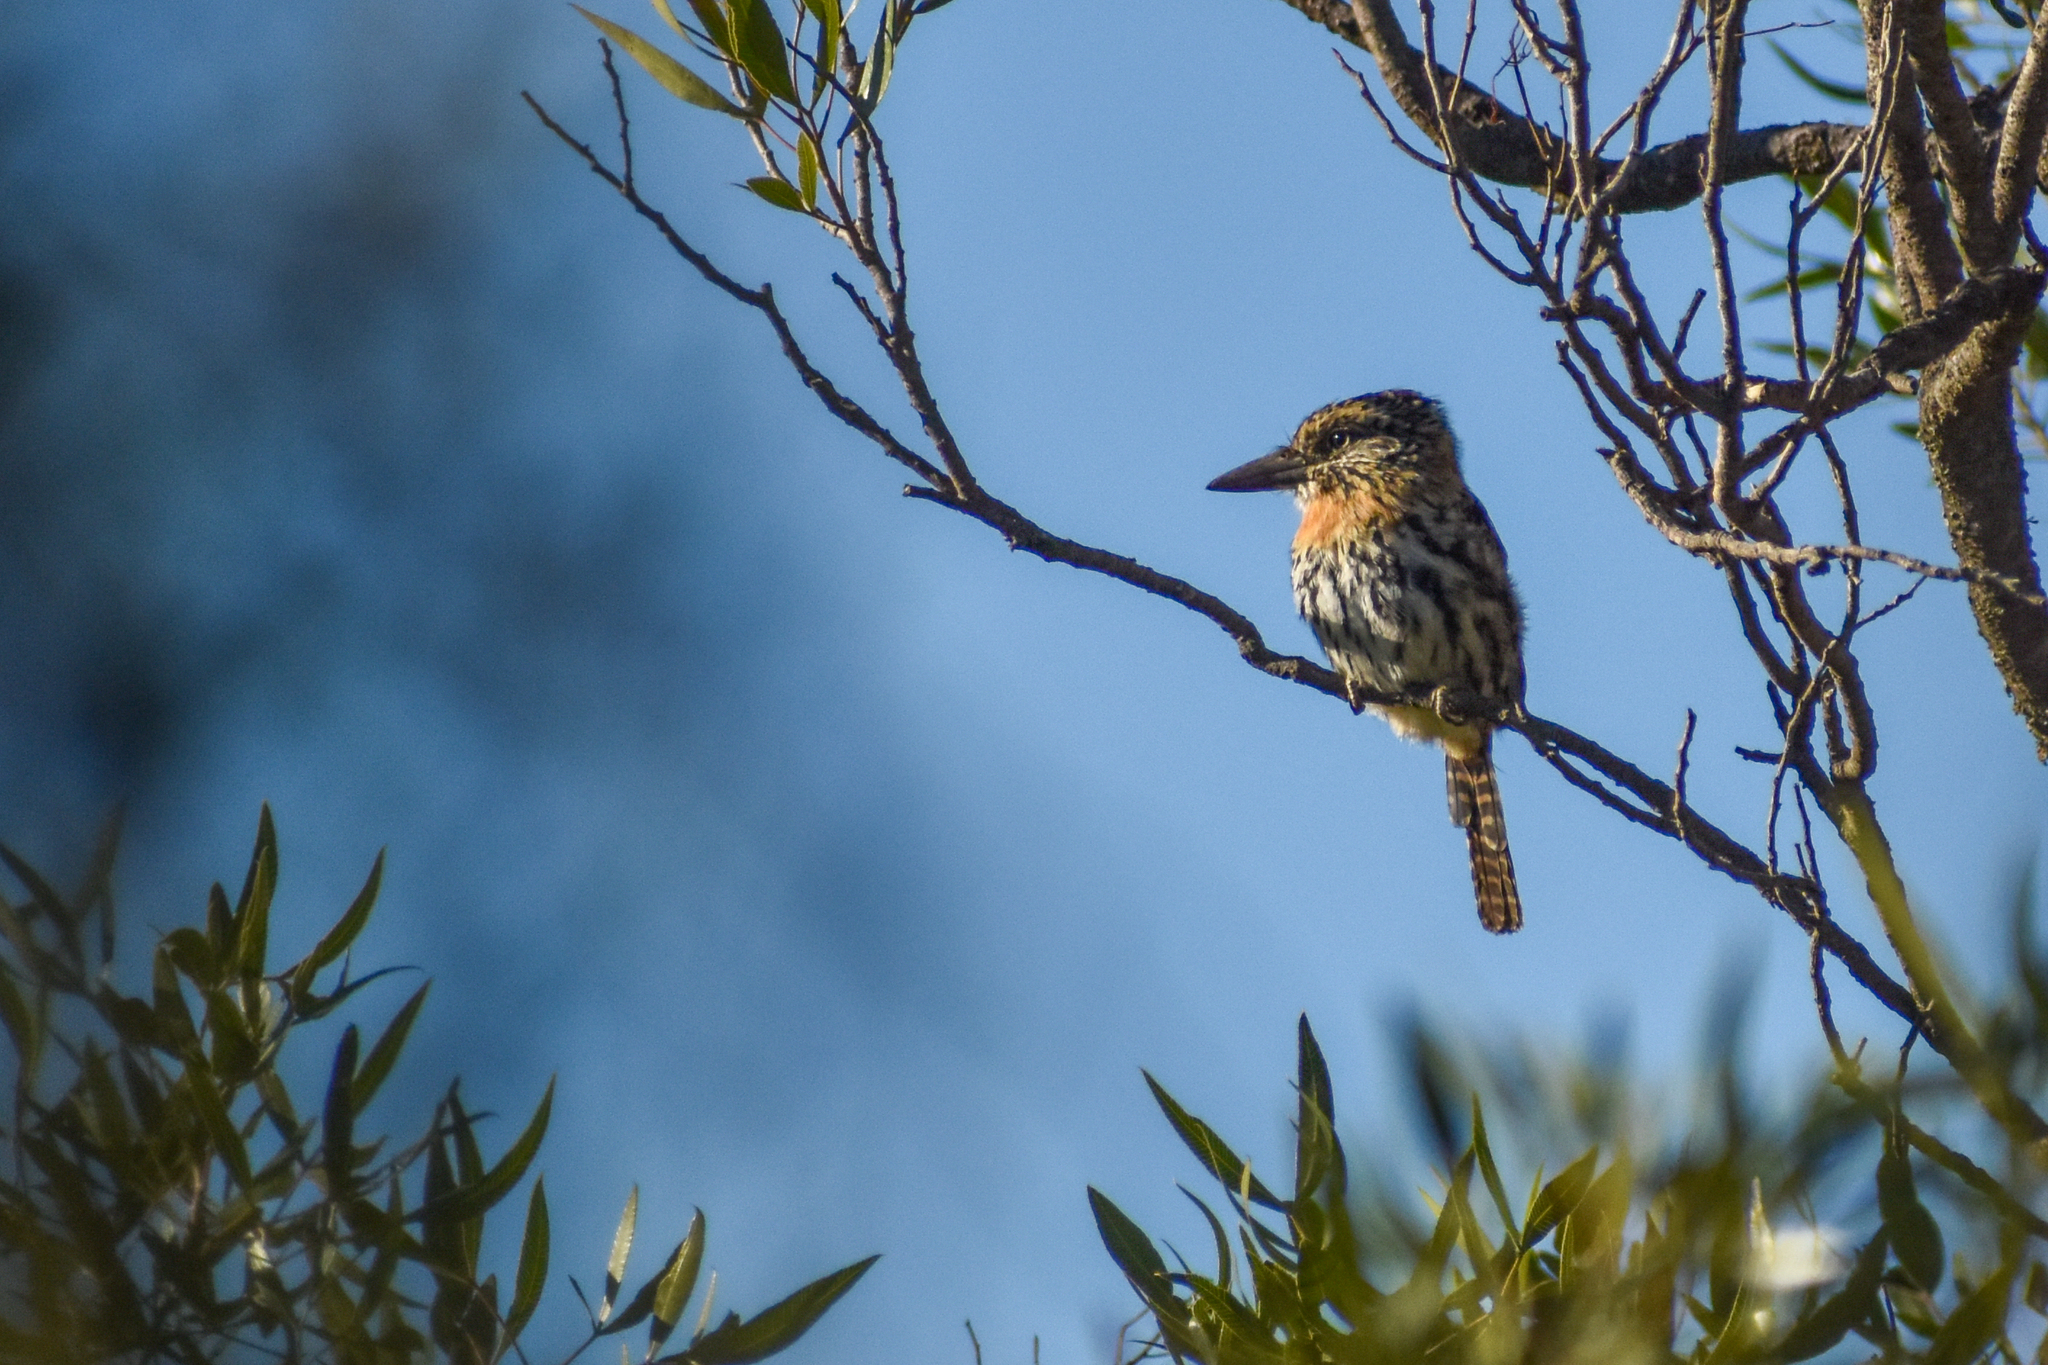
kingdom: Animalia
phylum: Chordata
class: Aves
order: Piciformes
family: Bucconidae
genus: Nystalus
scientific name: Nystalus maculatus
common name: Caatinga puffbird
